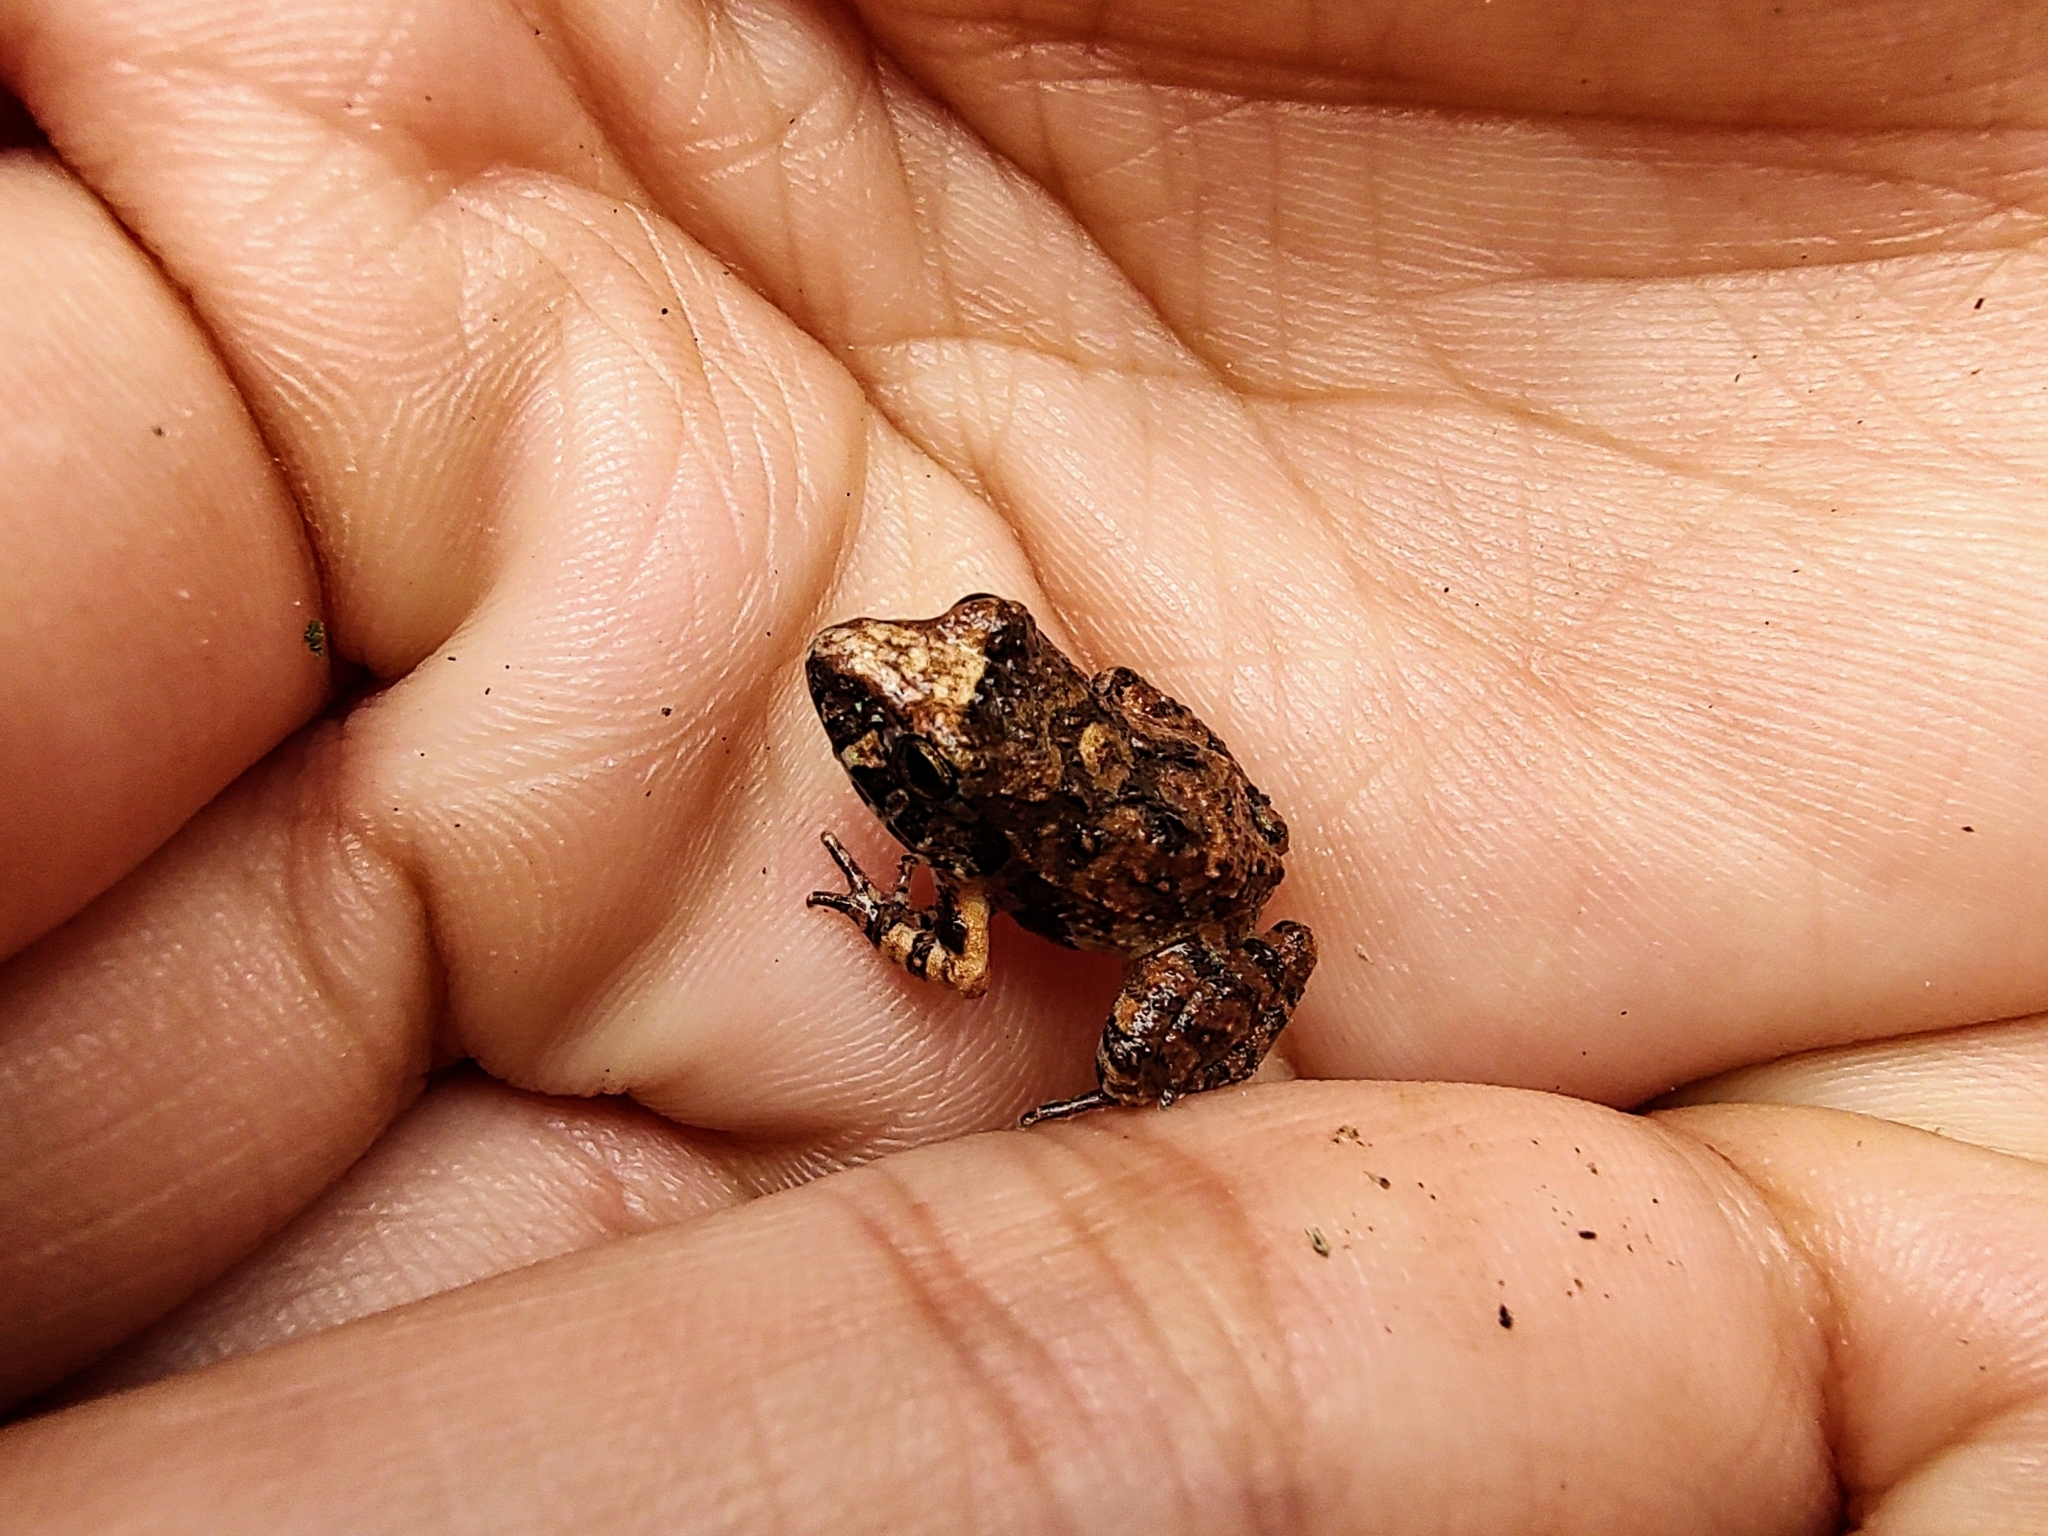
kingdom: Animalia
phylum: Chordata
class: Amphibia
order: Anura
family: Craugastoridae
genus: Craugastor
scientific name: Craugastor occidentalis
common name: Taylor's barking frog
